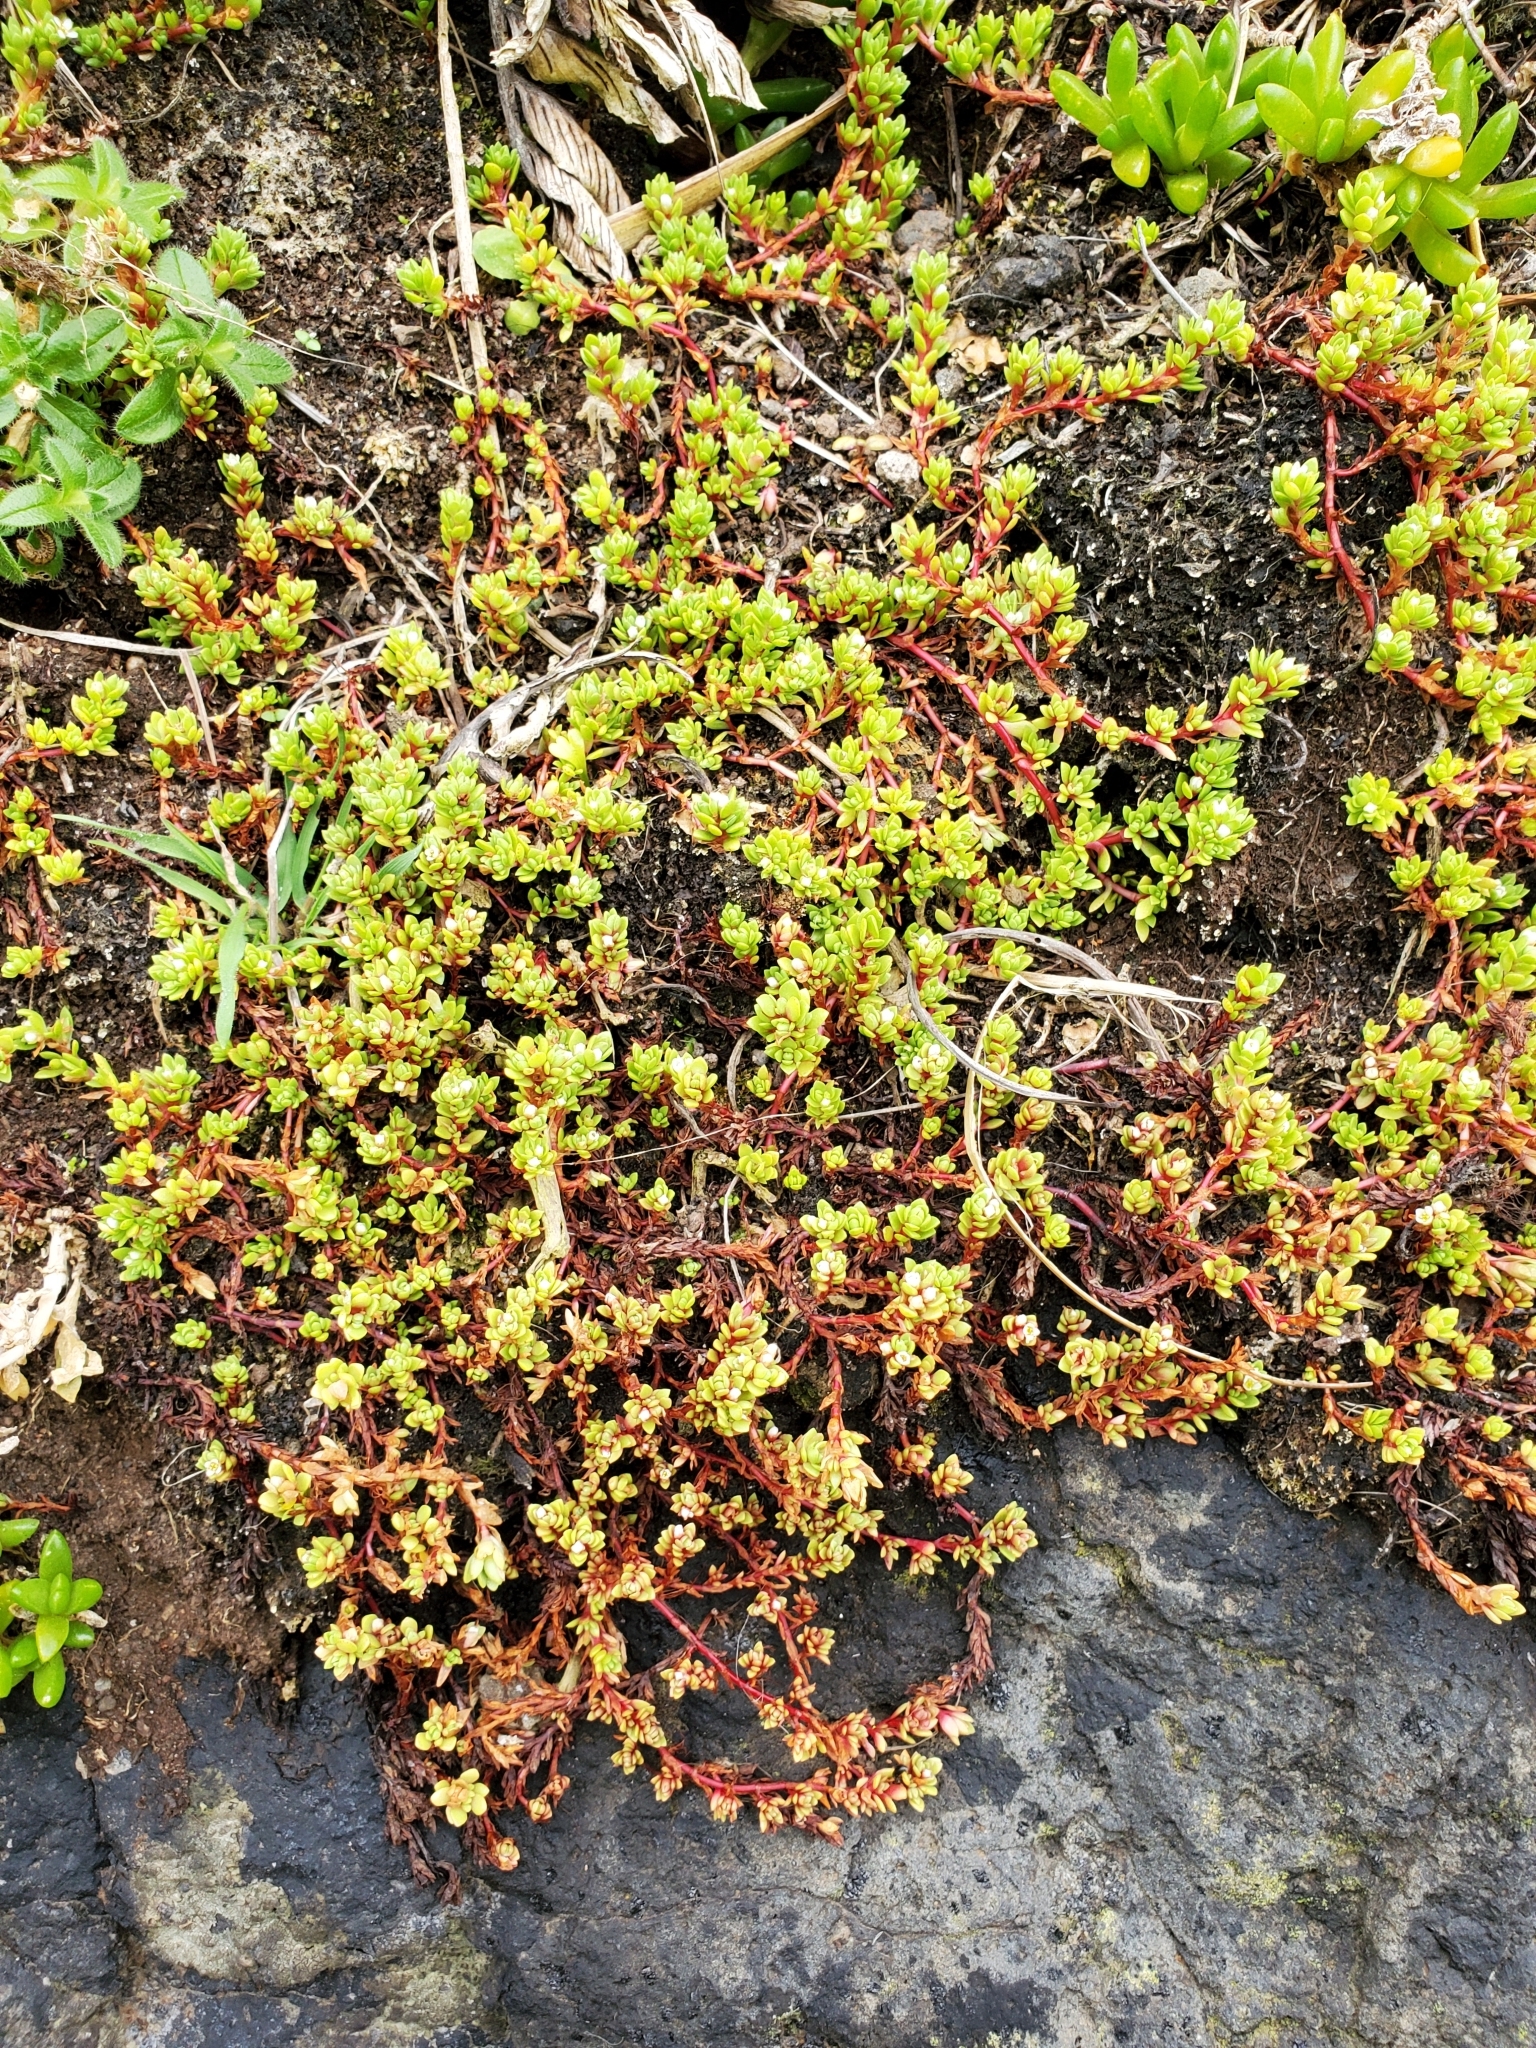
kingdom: Plantae
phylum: Tracheophyta
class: Magnoliopsida
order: Saxifragales
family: Crassulaceae
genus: Crassula
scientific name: Crassula moschata
